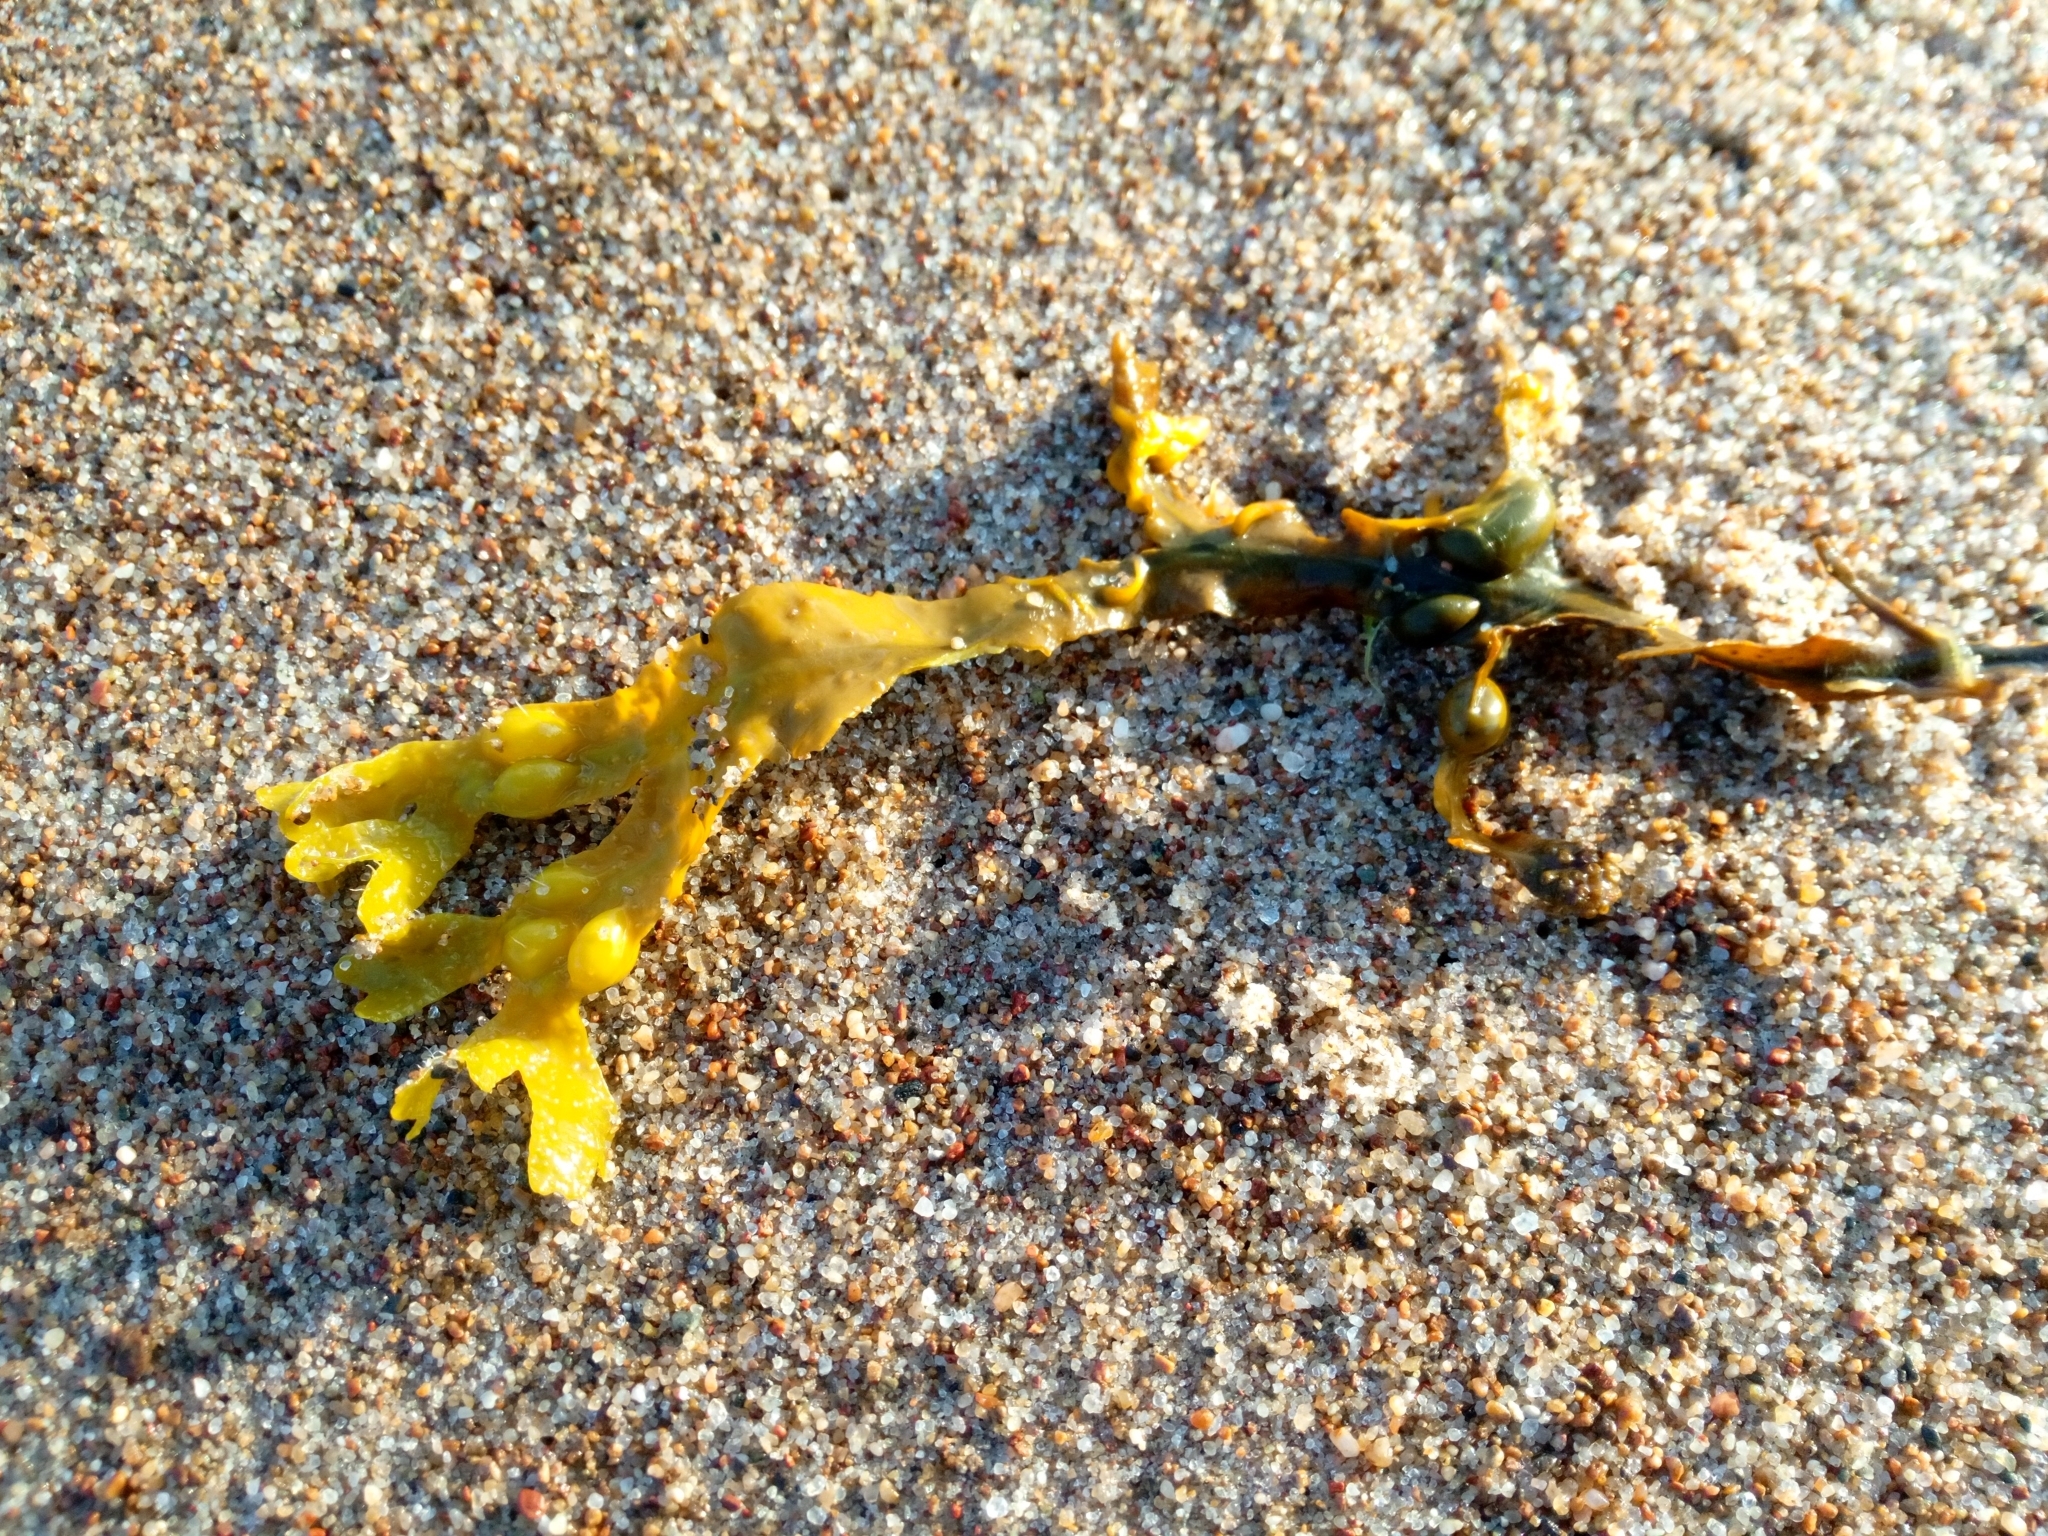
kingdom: Chromista
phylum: Ochrophyta
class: Phaeophyceae
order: Fucales
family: Fucaceae
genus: Fucus
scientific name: Fucus vesiculosus
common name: Bladder wrack
